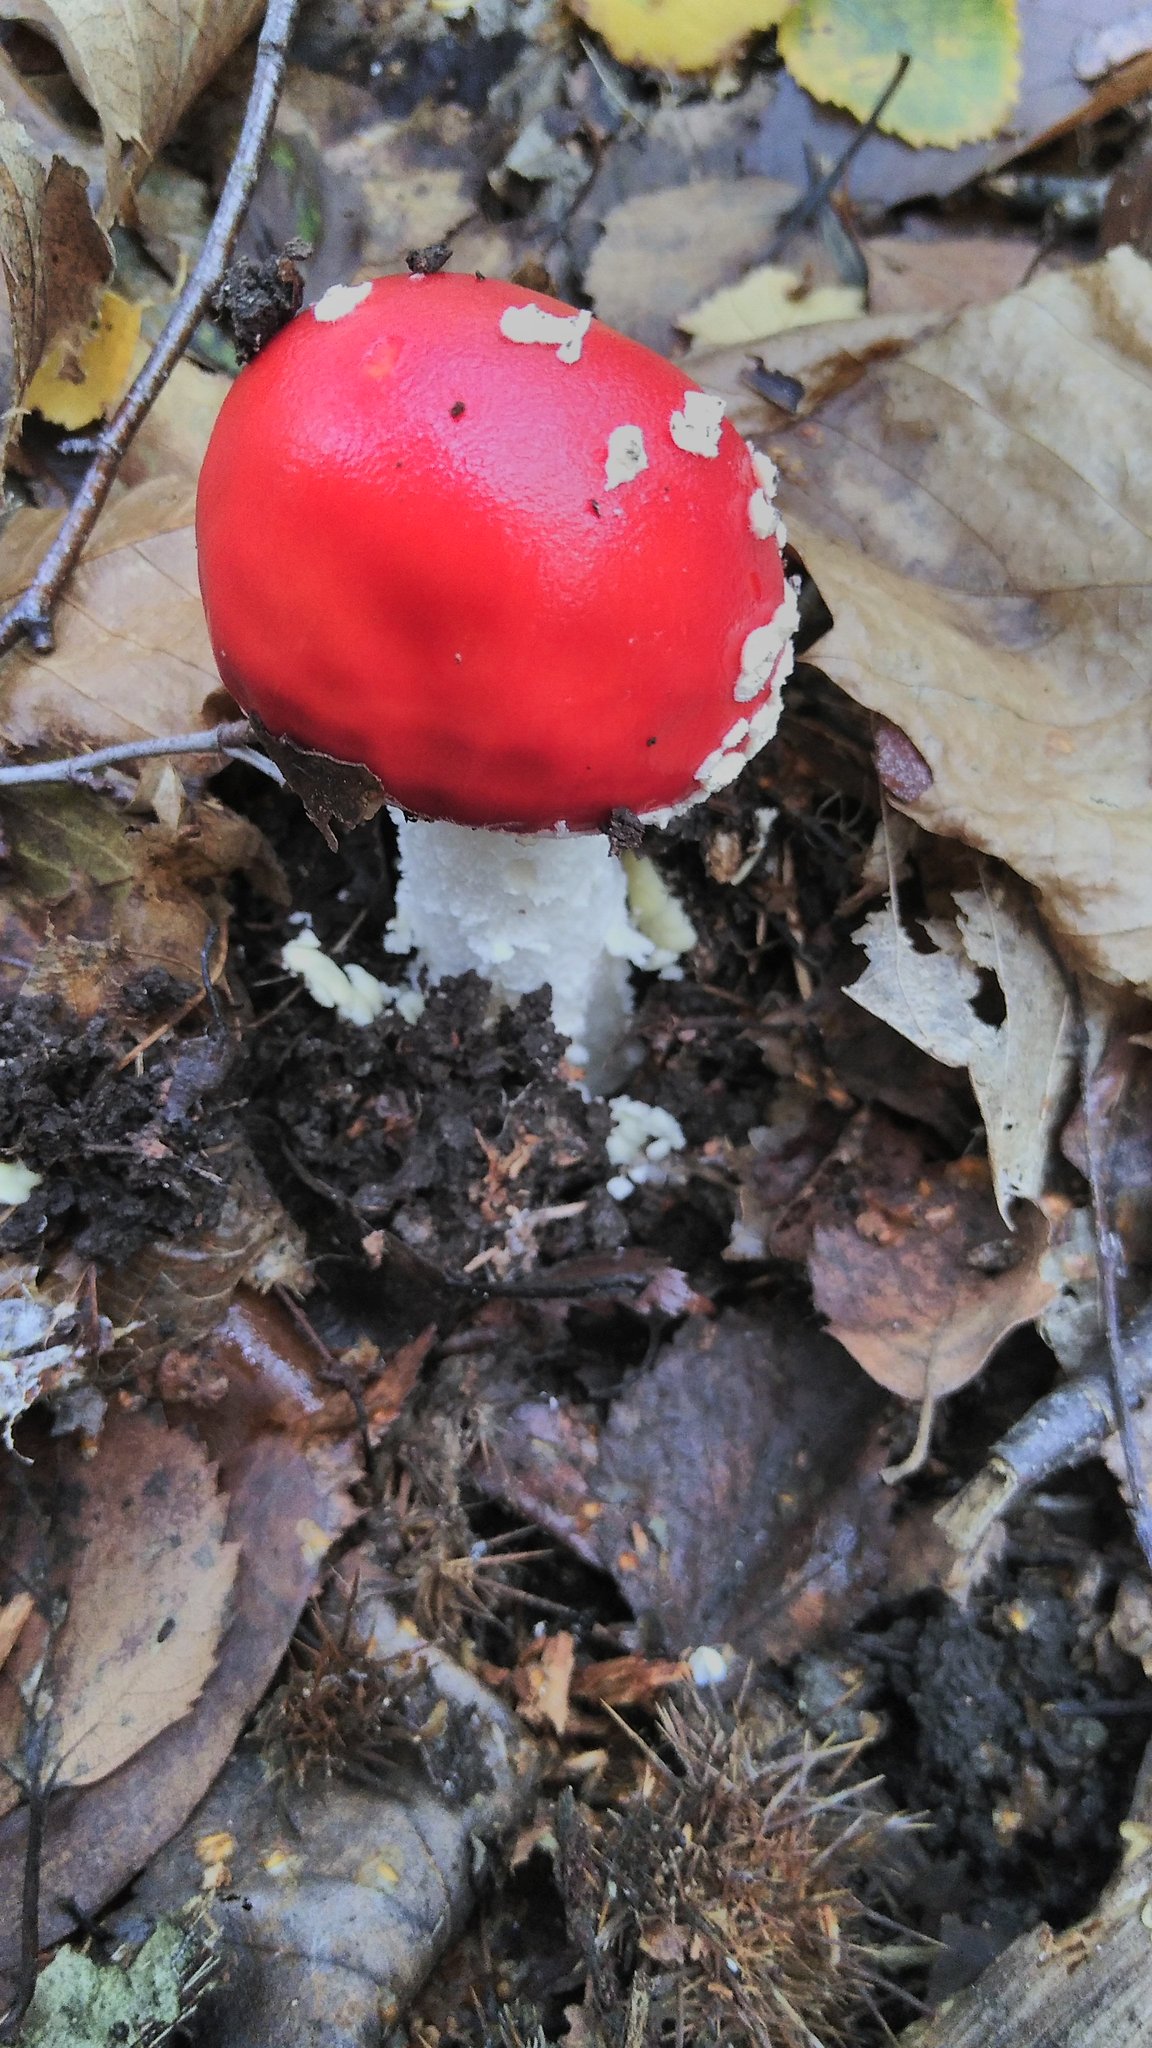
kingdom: Fungi
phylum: Basidiomycota
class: Agaricomycetes
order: Agaricales
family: Amanitaceae
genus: Amanita
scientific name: Amanita muscaria
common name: Fly agaric
